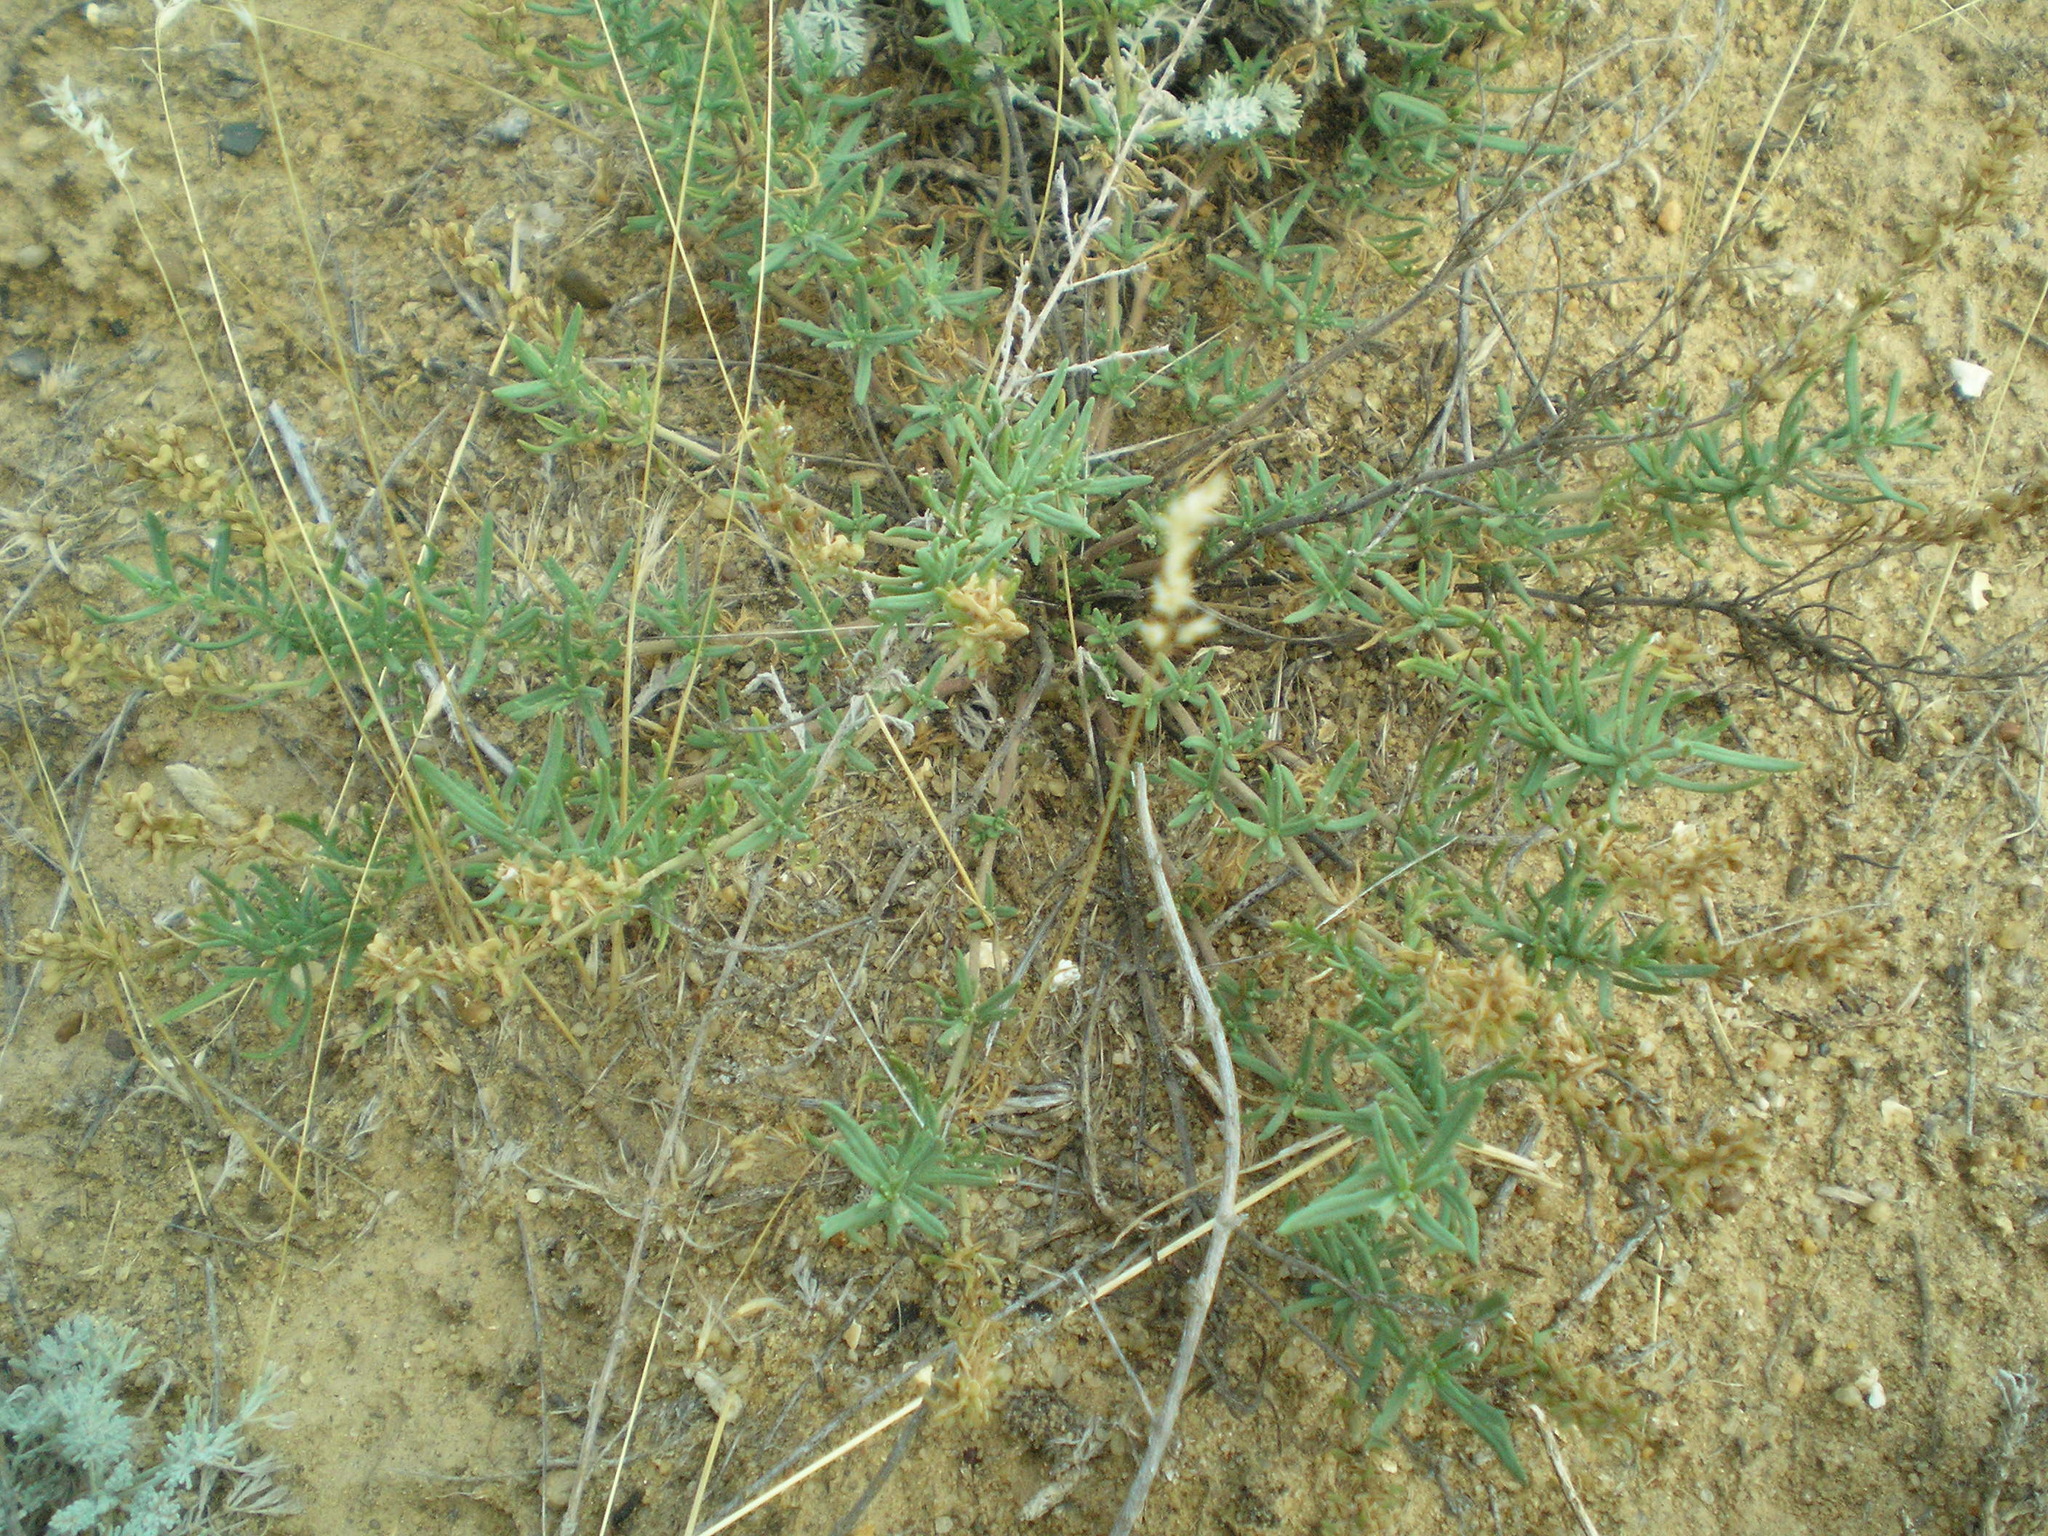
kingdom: Plantae
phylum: Tracheophyta
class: Magnoliopsida
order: Lamiales
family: Plantaginaceae
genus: Veronica
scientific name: Veronica multifida
